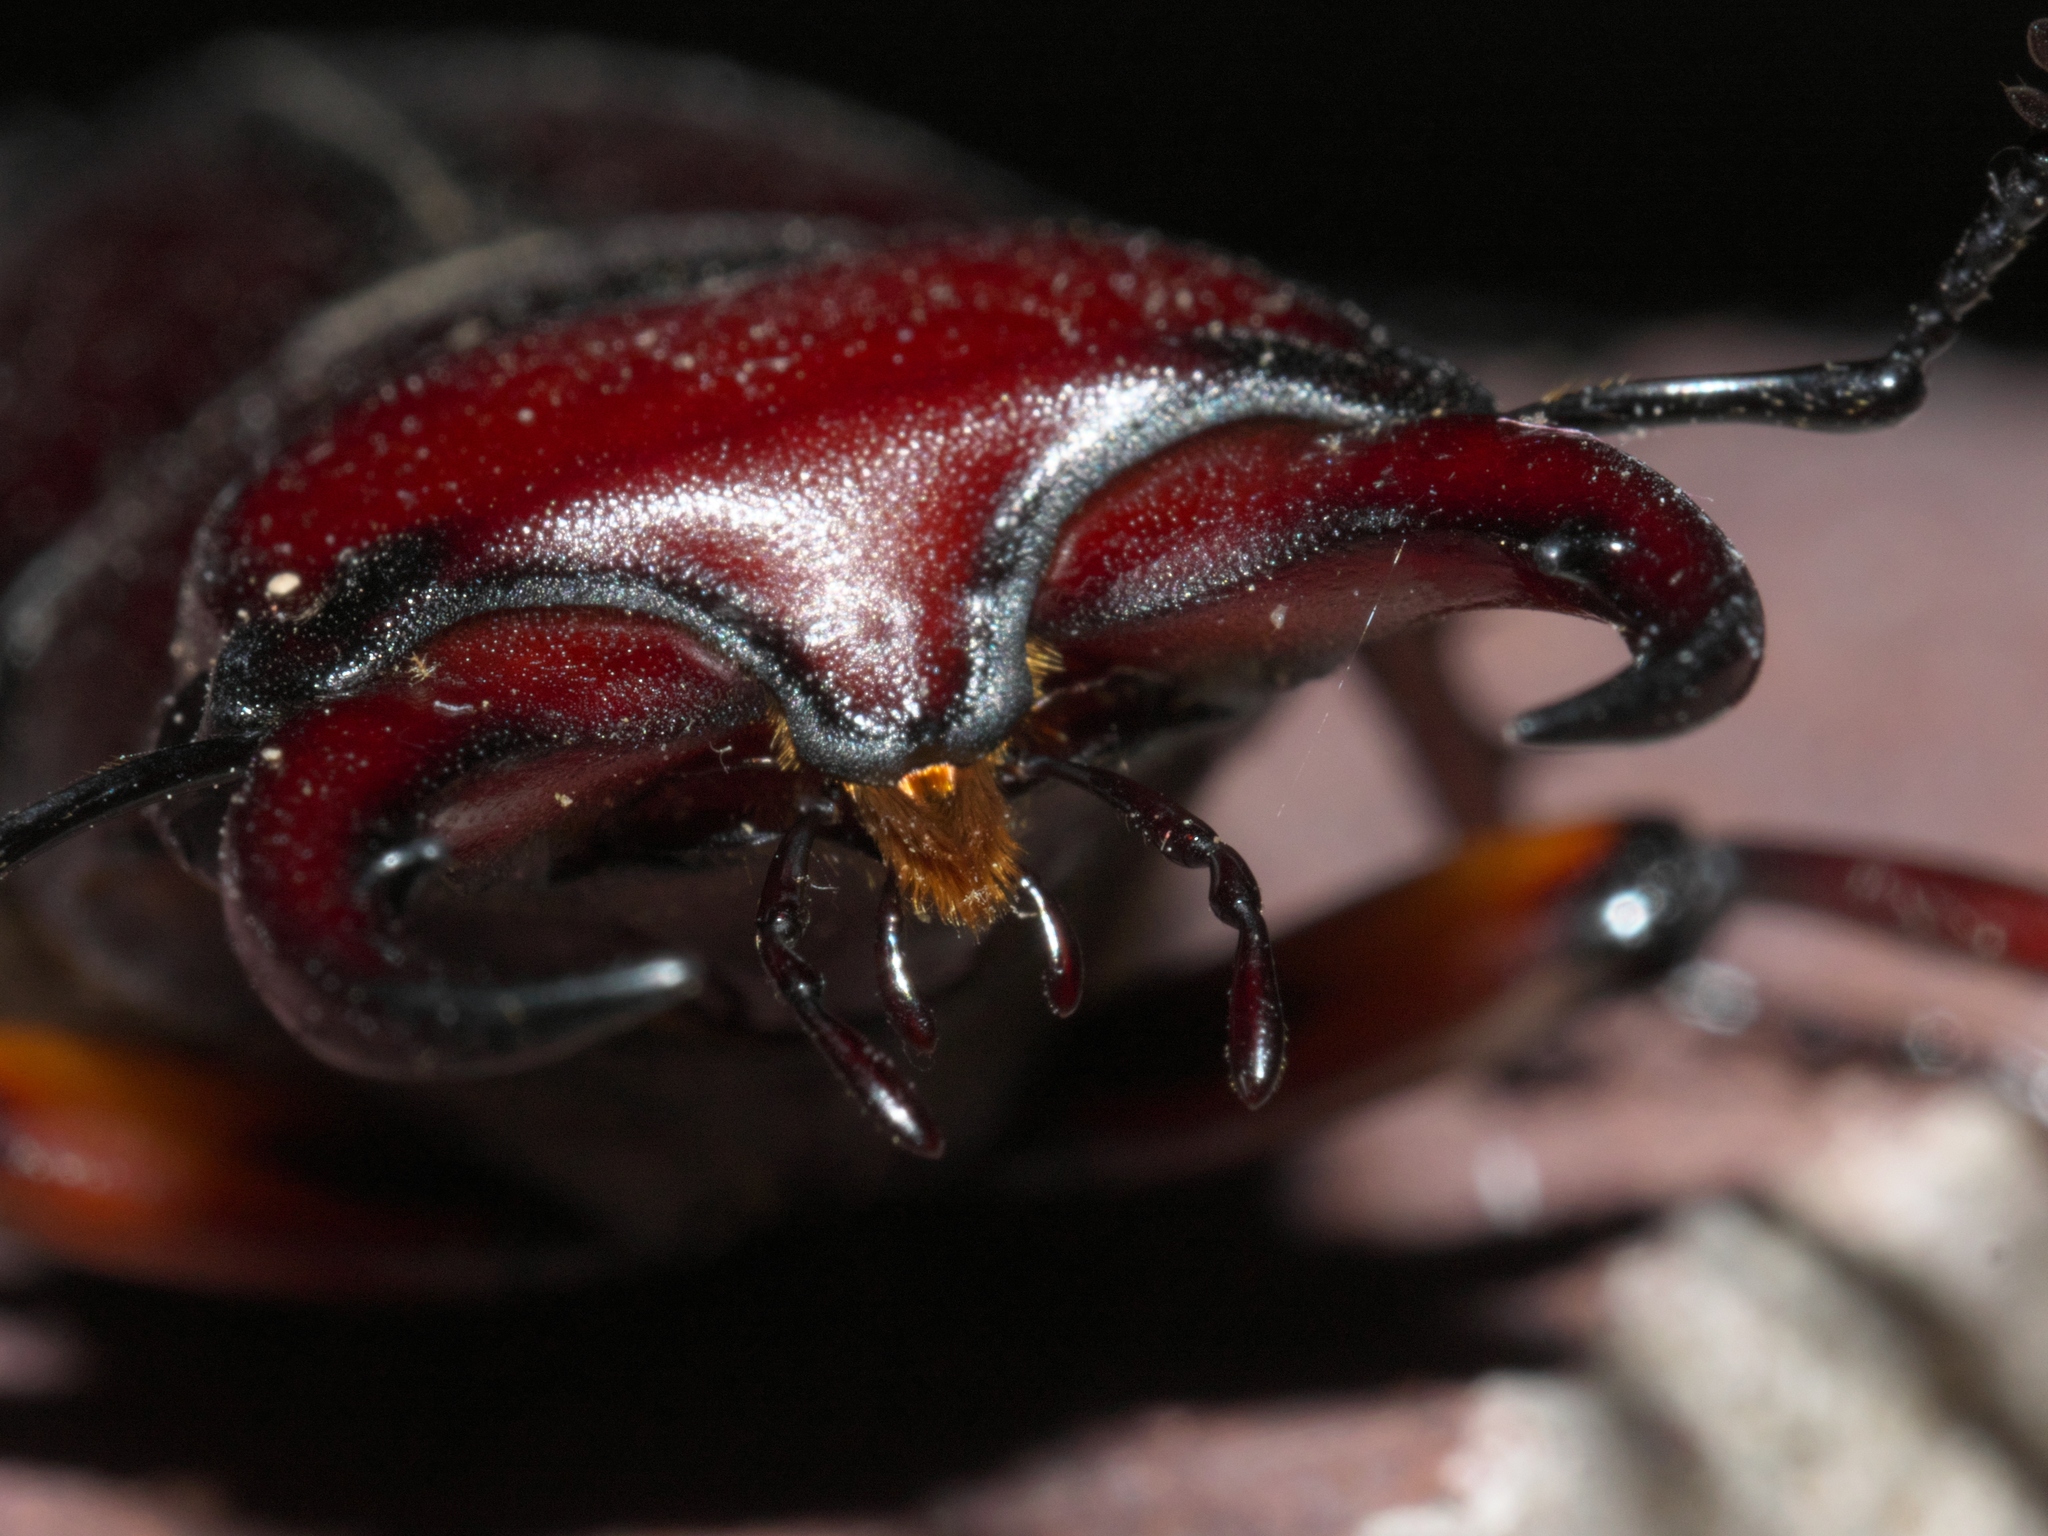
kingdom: Animalia
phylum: Arthropoda
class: Insecta
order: Coleoptera
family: Lucanidae
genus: Lucanus
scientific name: Lucanus capreolus
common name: Stag beetle
